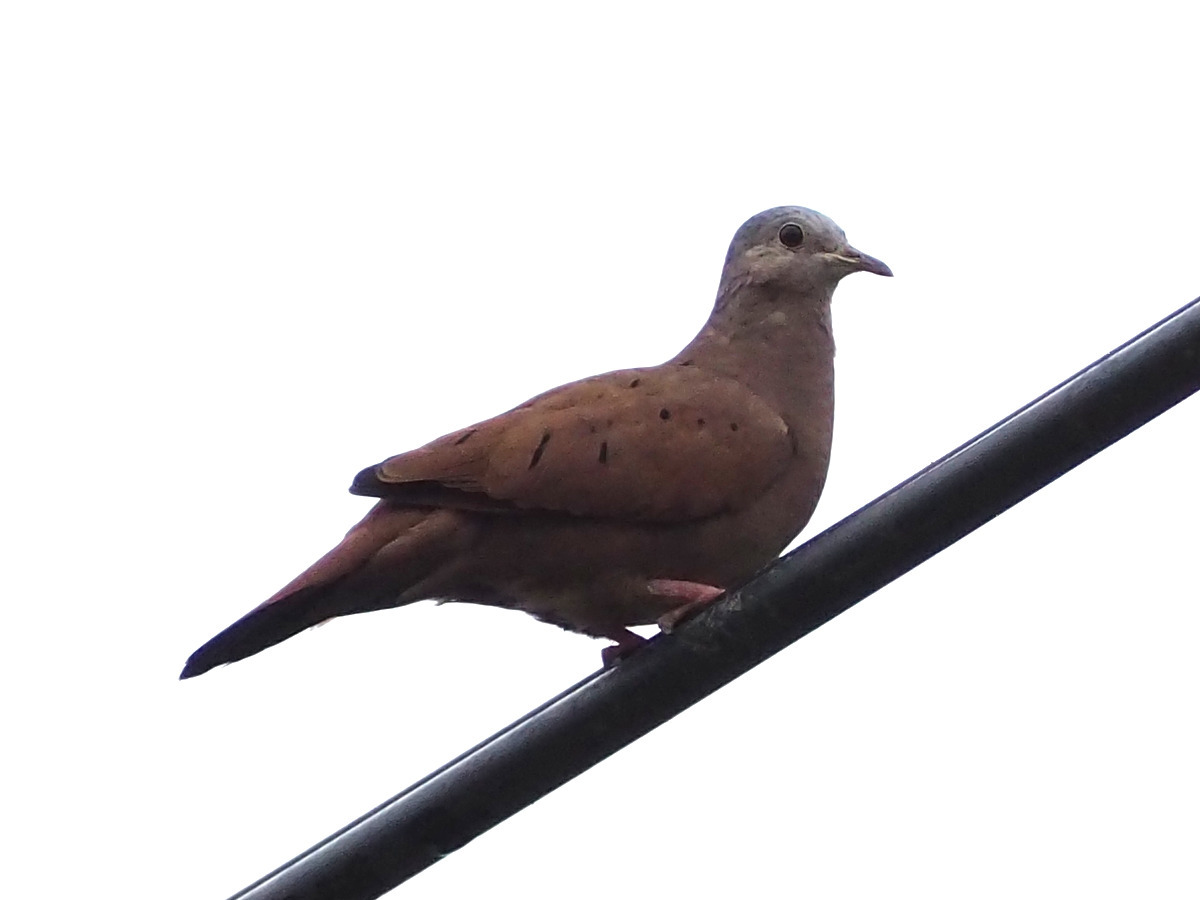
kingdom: Animalia
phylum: Chordata
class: Aves
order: Columbiformes
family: Columbidae
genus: Columbina
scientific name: Columbina talpacoti
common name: Ruddy ground dove
